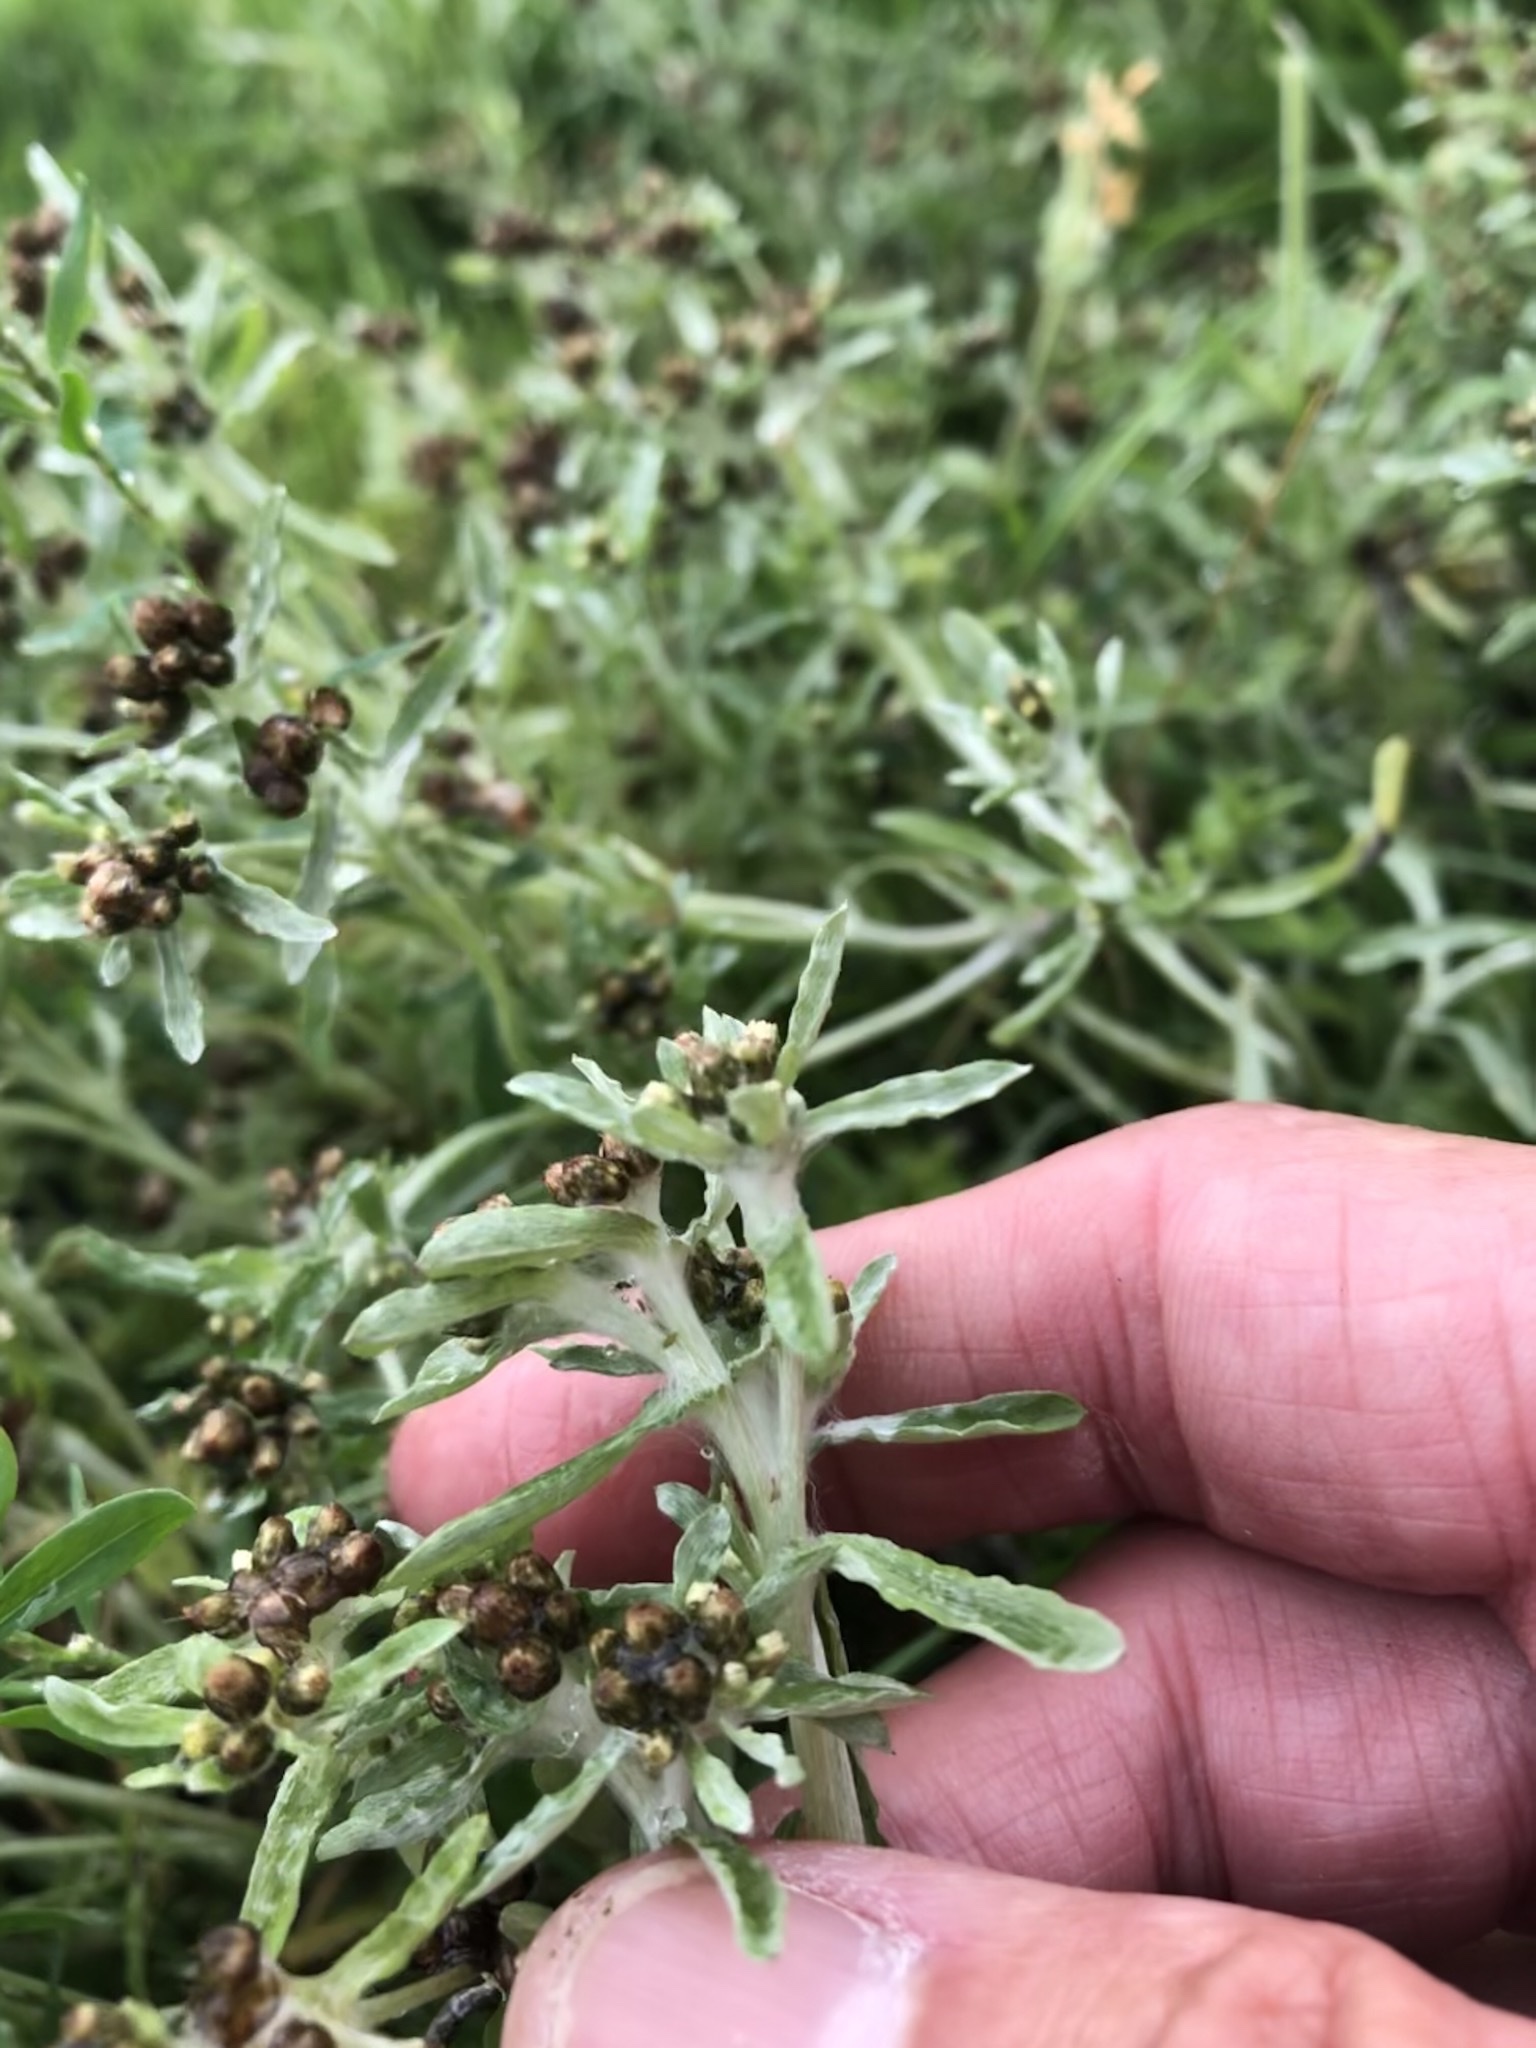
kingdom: Plantae
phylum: Tracheophyta
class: Magnoliopsida
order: Asterales
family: Asteraceae
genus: Gnaphalium
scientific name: Gnaphalium uliginosum
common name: Marsh cudweed
